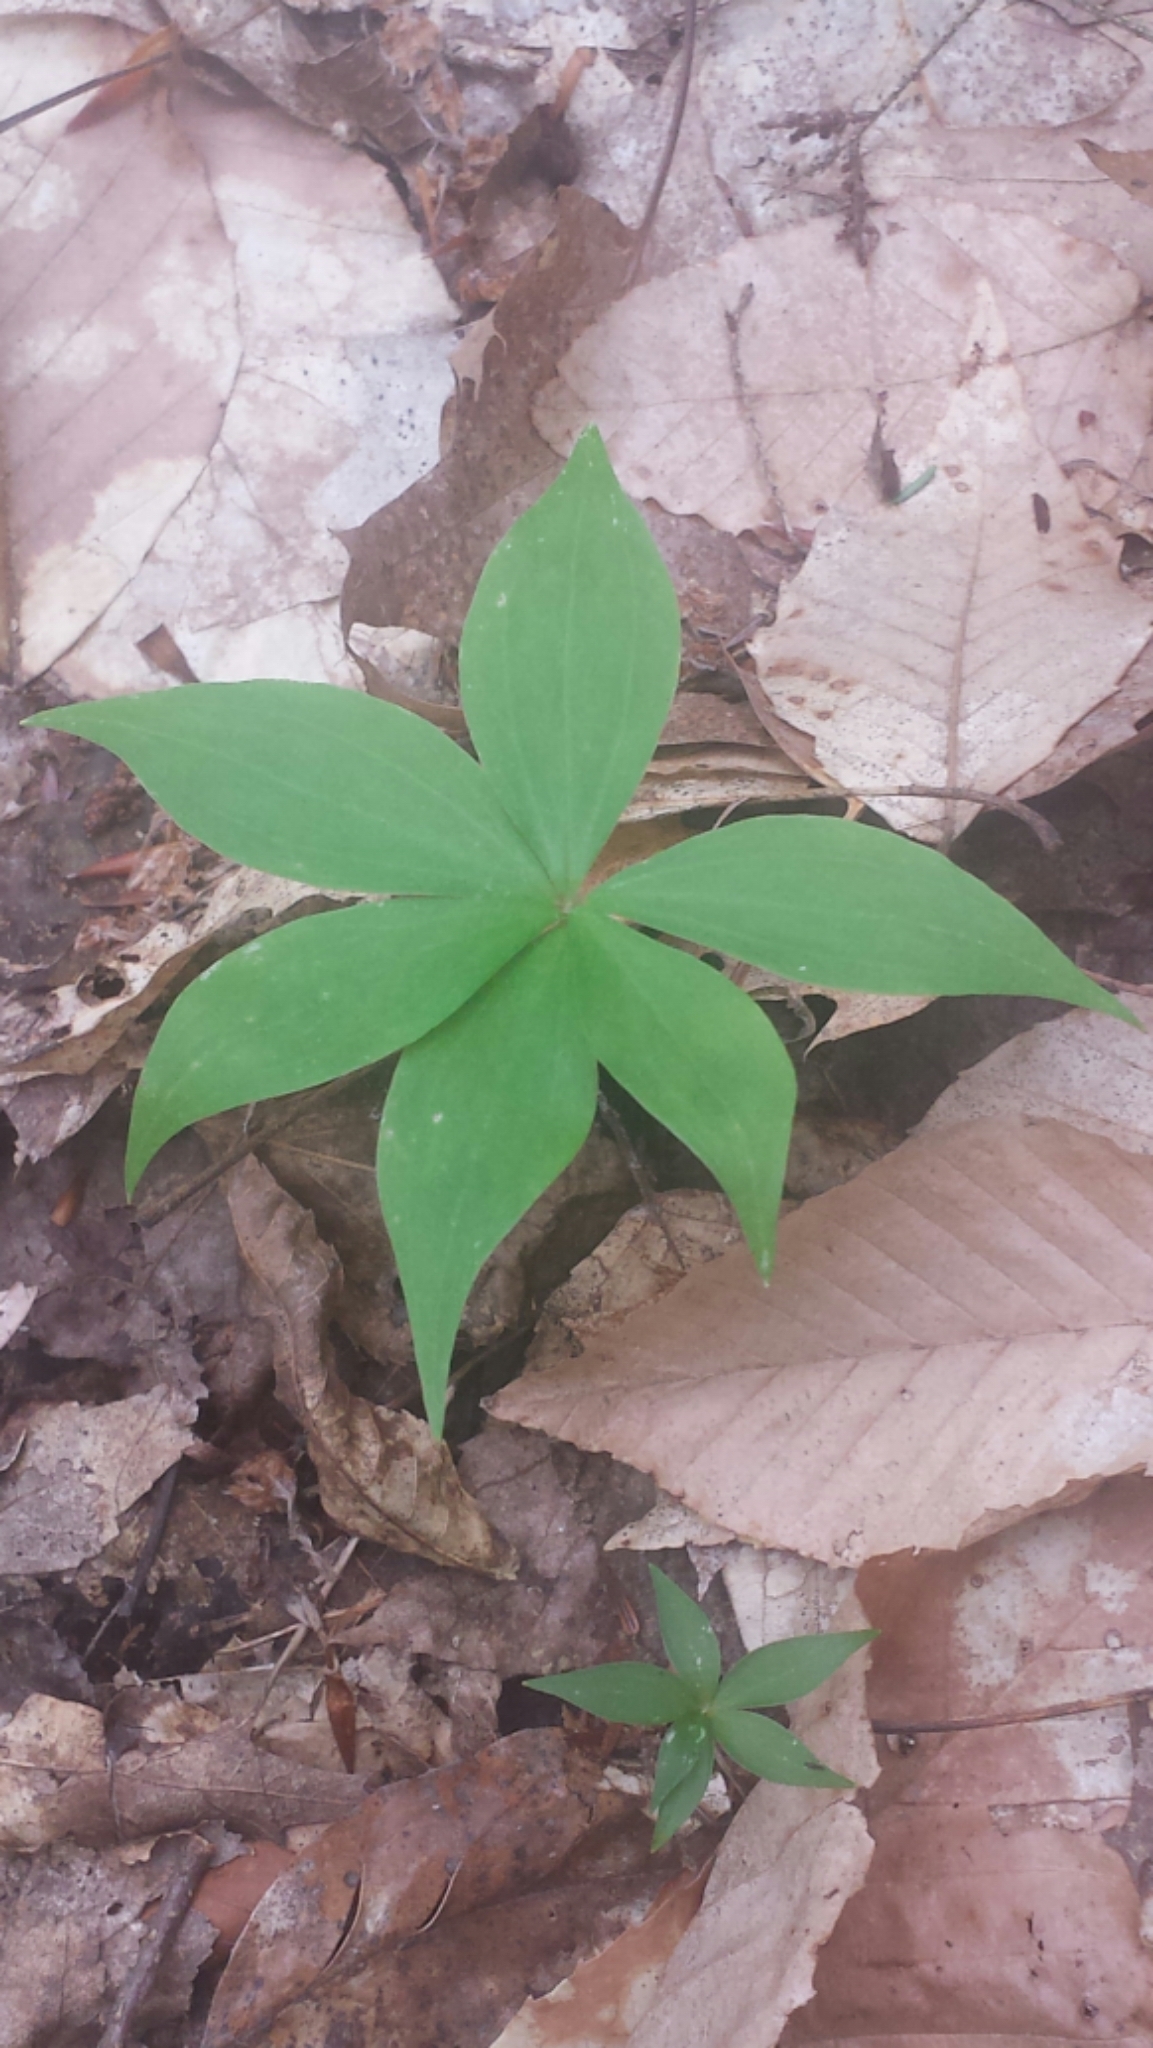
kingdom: Plantae
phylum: Tracheophyta
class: Liliopsida
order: Liliales
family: Liliaceae
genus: Medeola
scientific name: Medeola virginiana
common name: Indian cucumber-root
